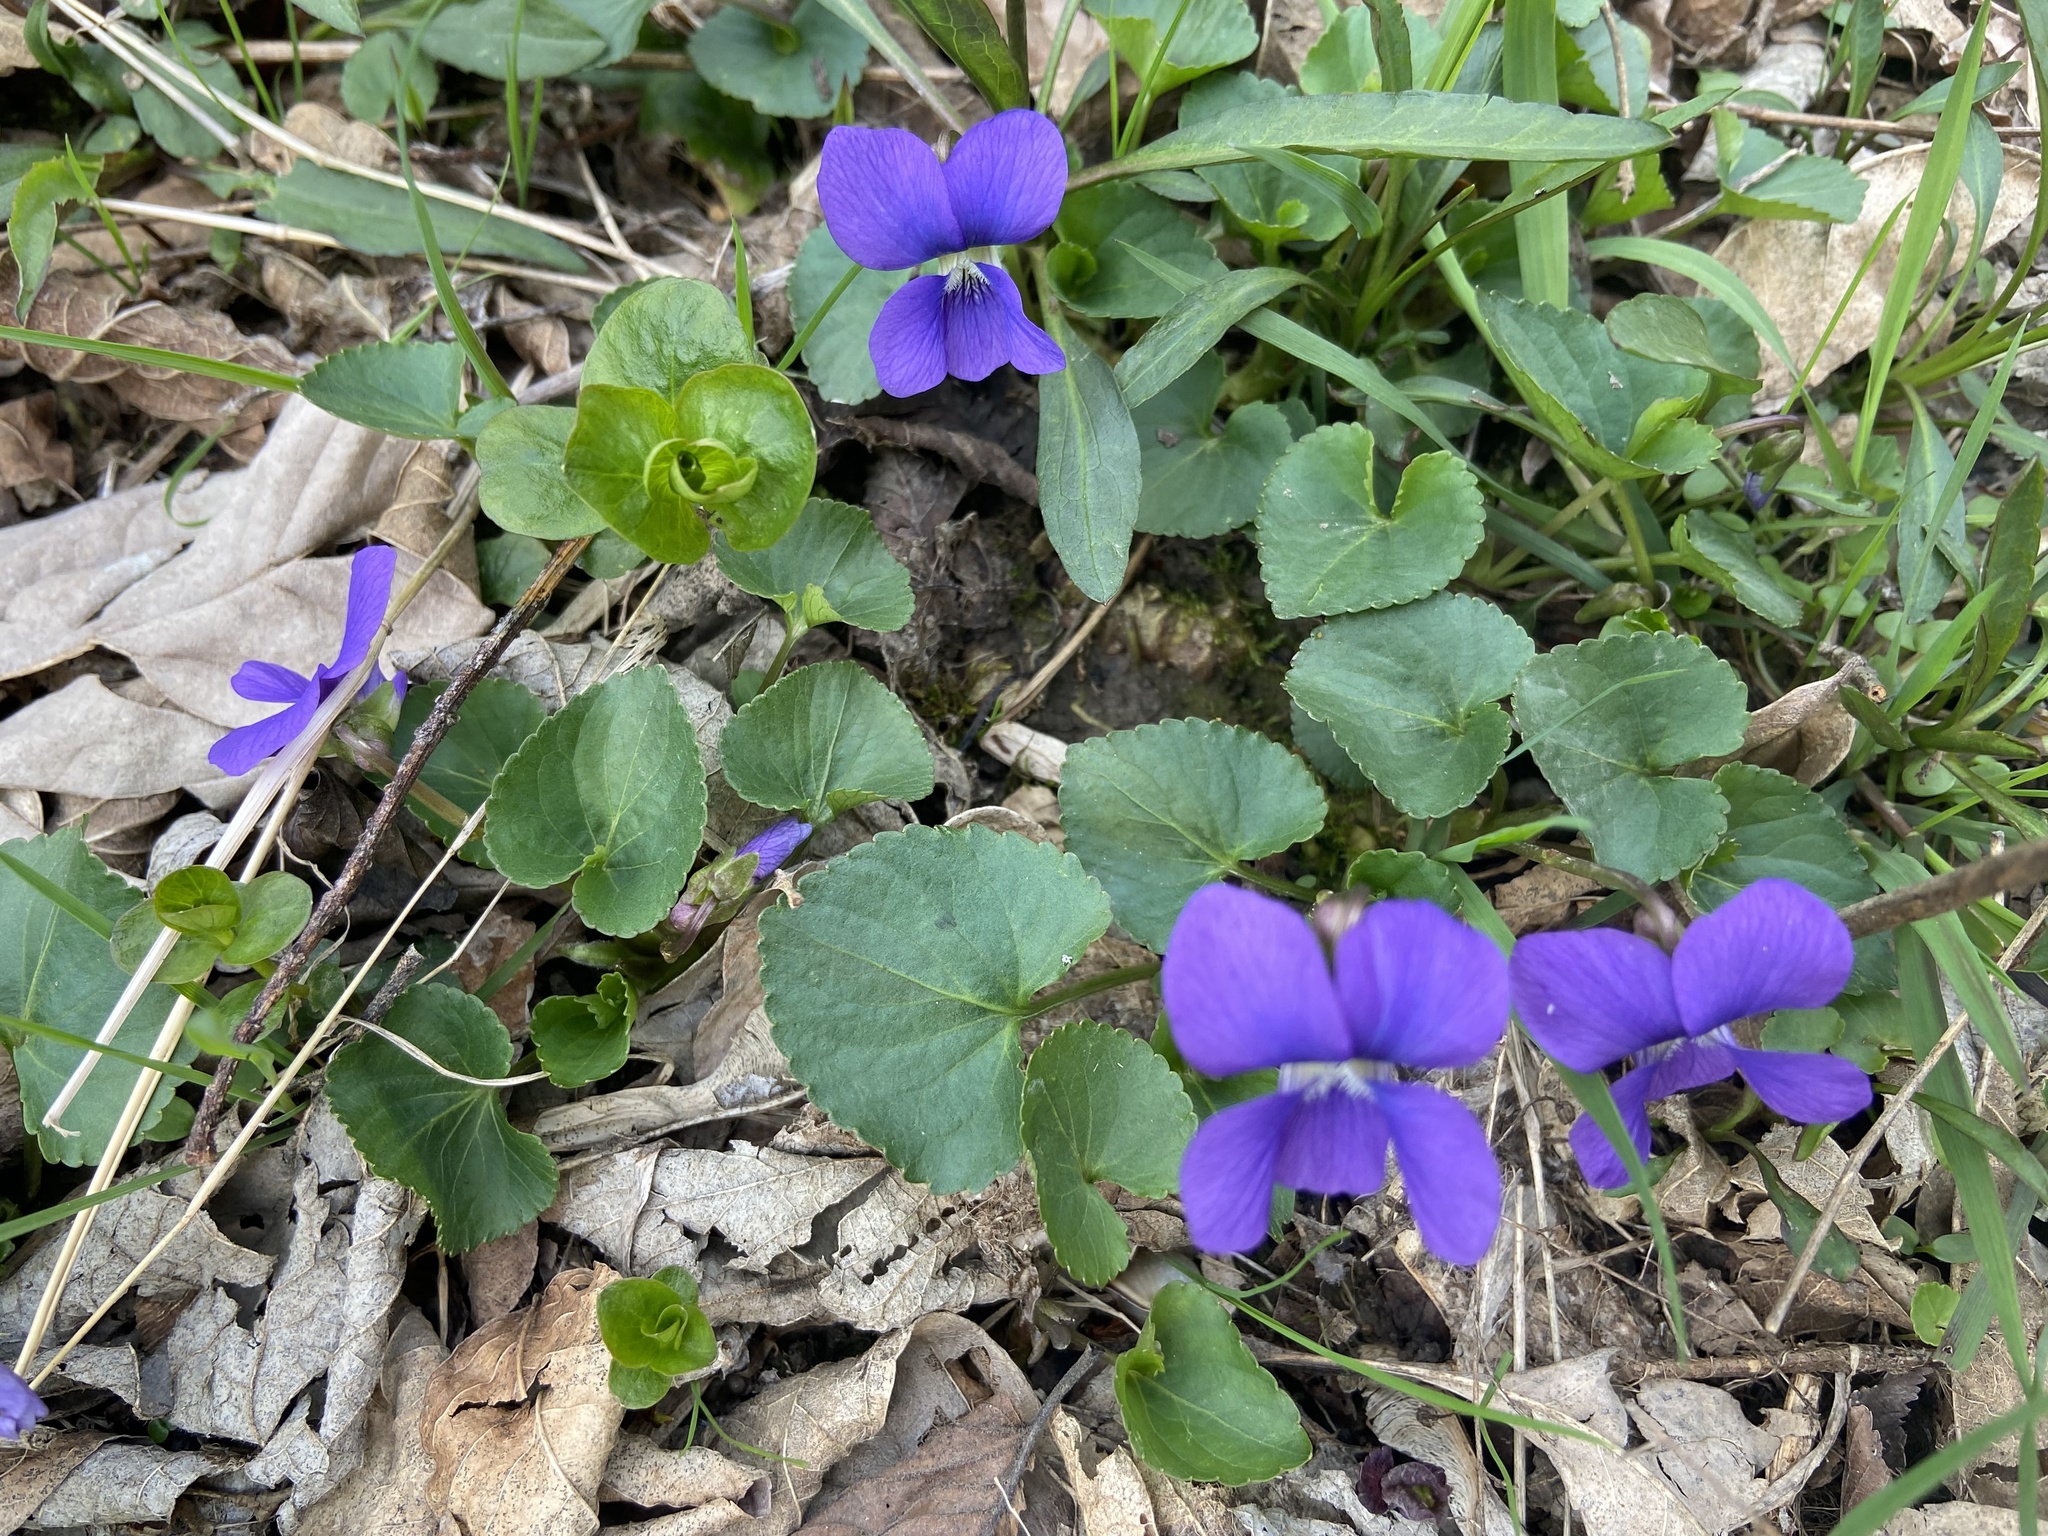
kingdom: Plantae
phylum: Tracheophyta
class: Magnoliopsida
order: Malpighiales
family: Violaceae
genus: Viola
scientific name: Viola sororia
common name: Dooryard violet
